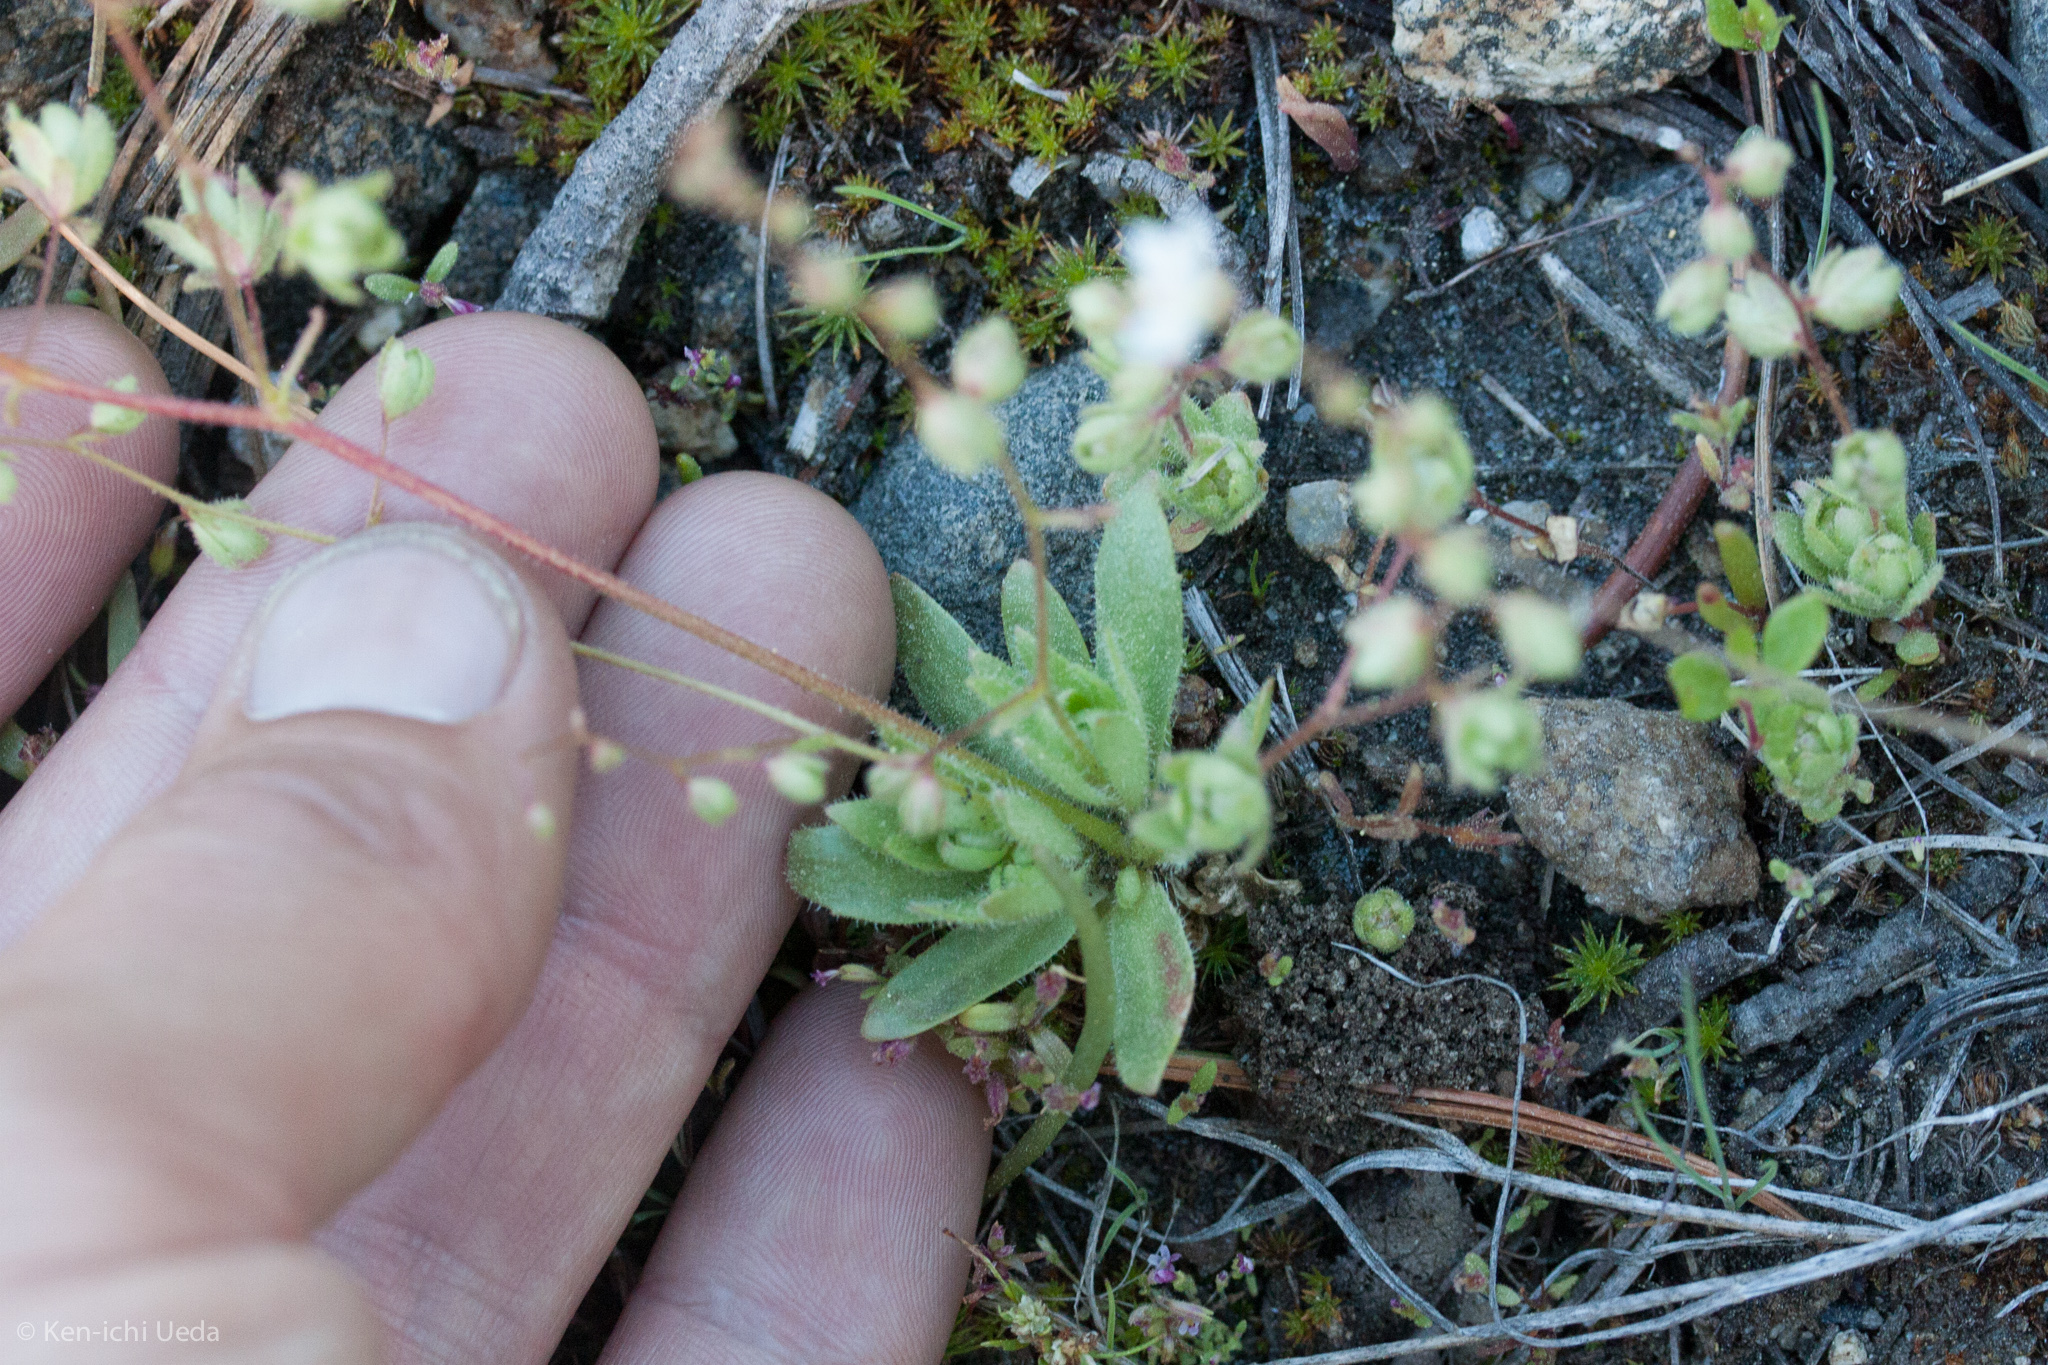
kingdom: Plantae
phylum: Tracheophyta
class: Magnoliopsida
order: Saxifragales
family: Saxifragaceae
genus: Micranthes
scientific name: Micranthes bryophora
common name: Bud saxifrage
